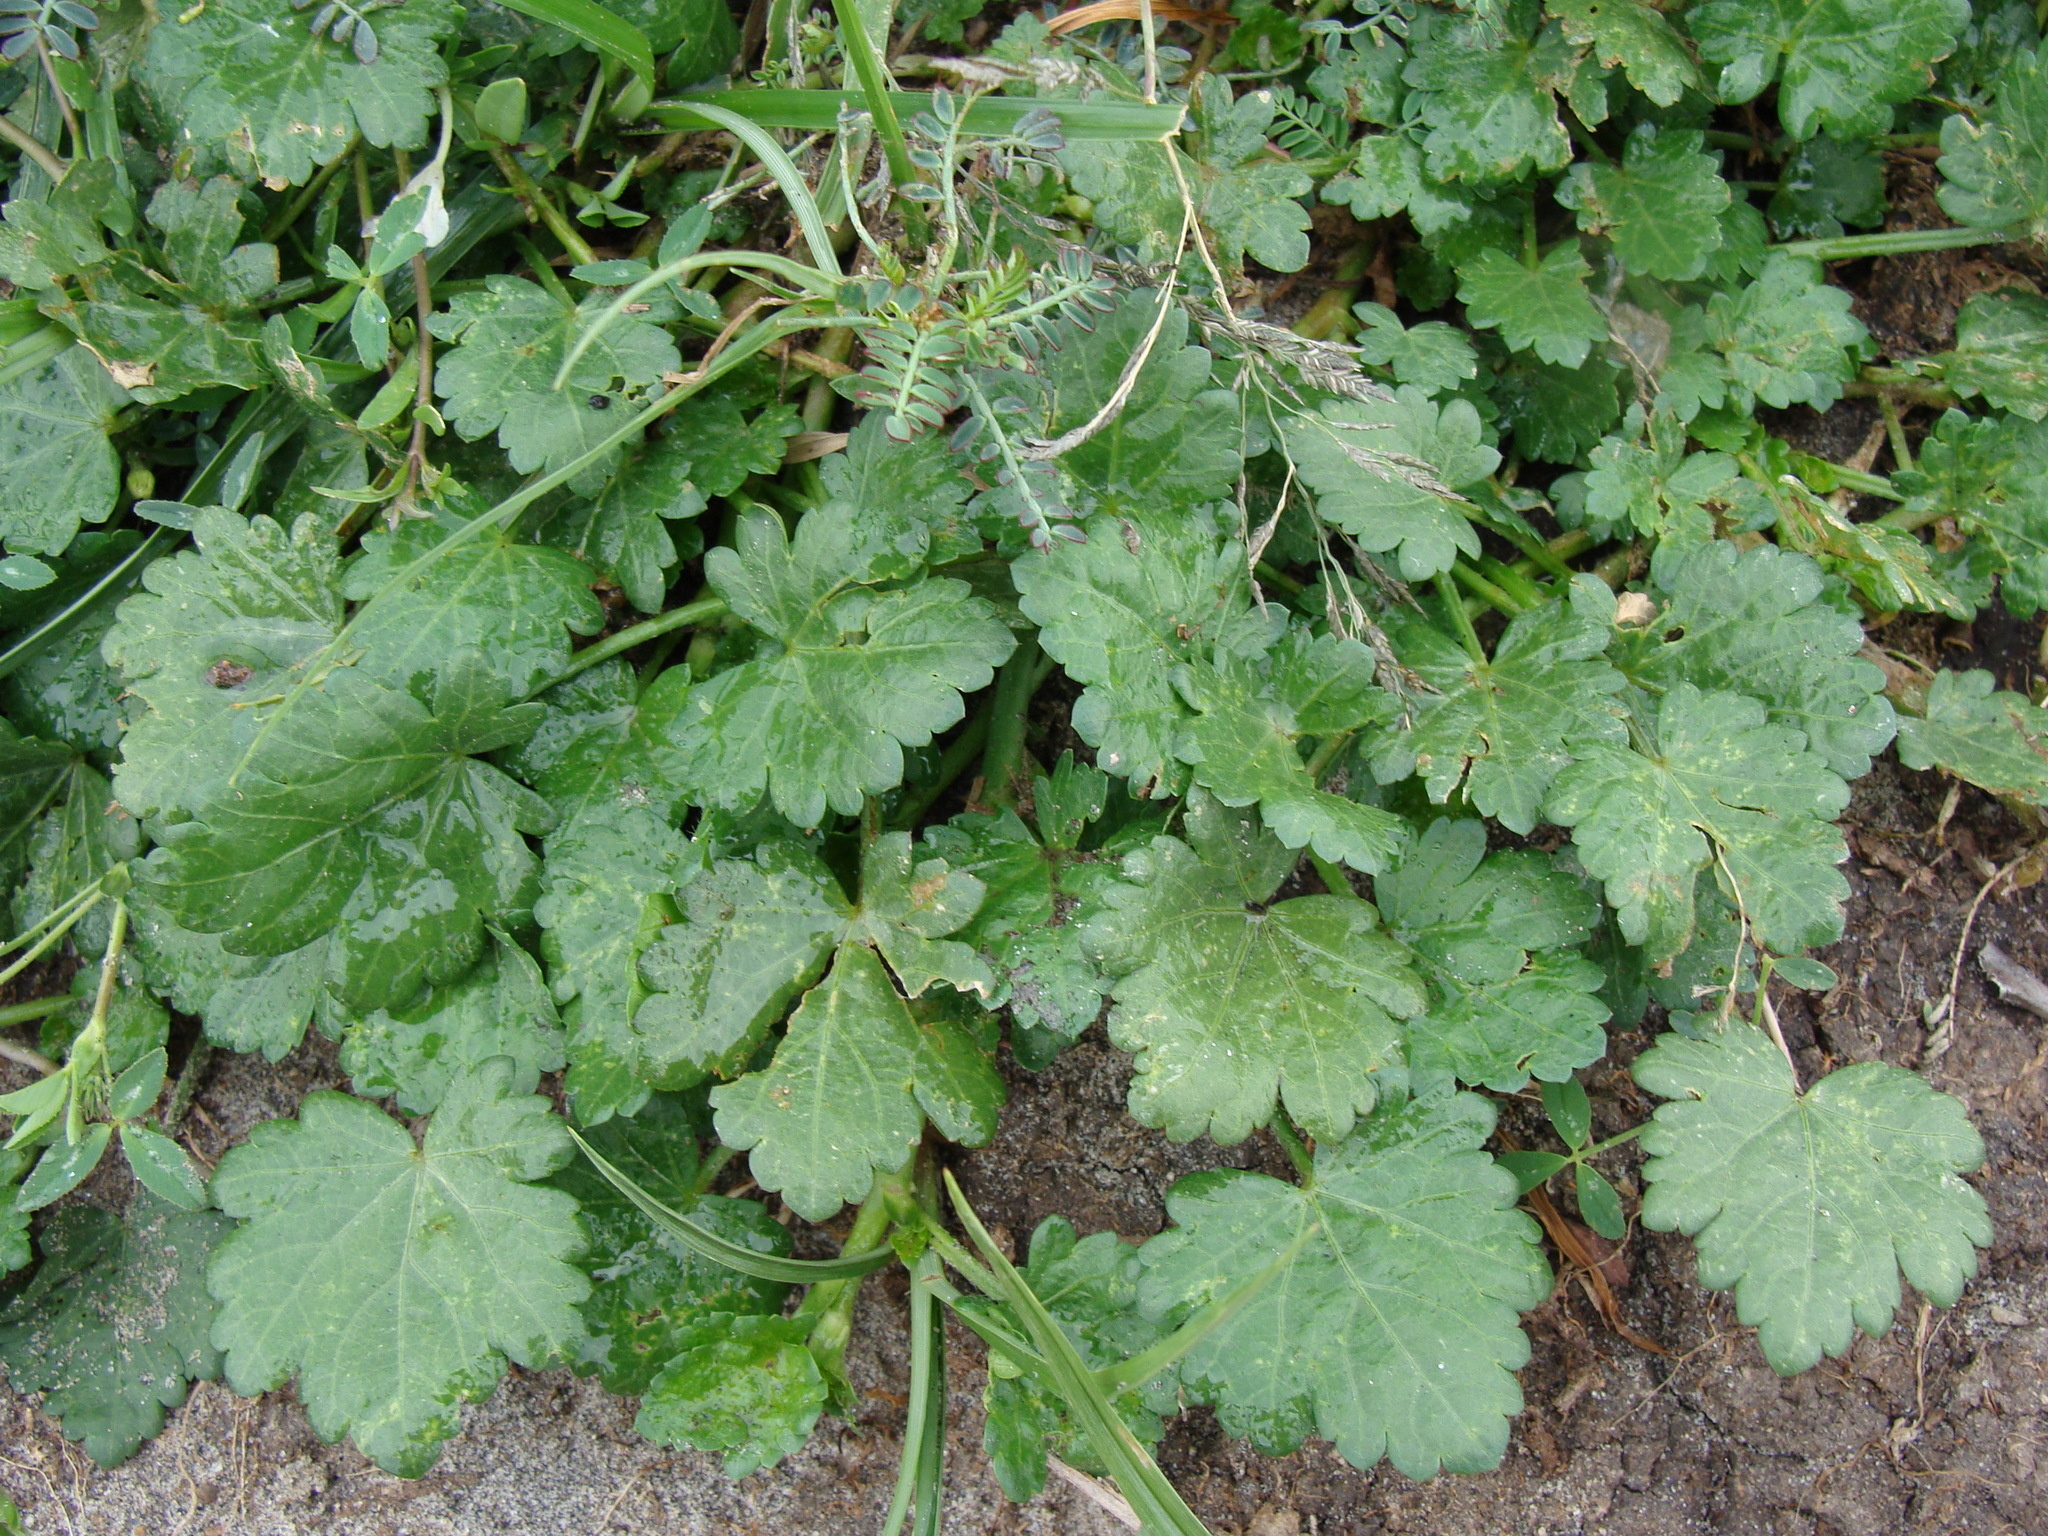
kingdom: Plantae
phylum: Tracheophyta
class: Magnoliopsida
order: Malvales
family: Malvaceae
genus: Modiola
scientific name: Modiola caroliniana
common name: Carolina bristlemallow
